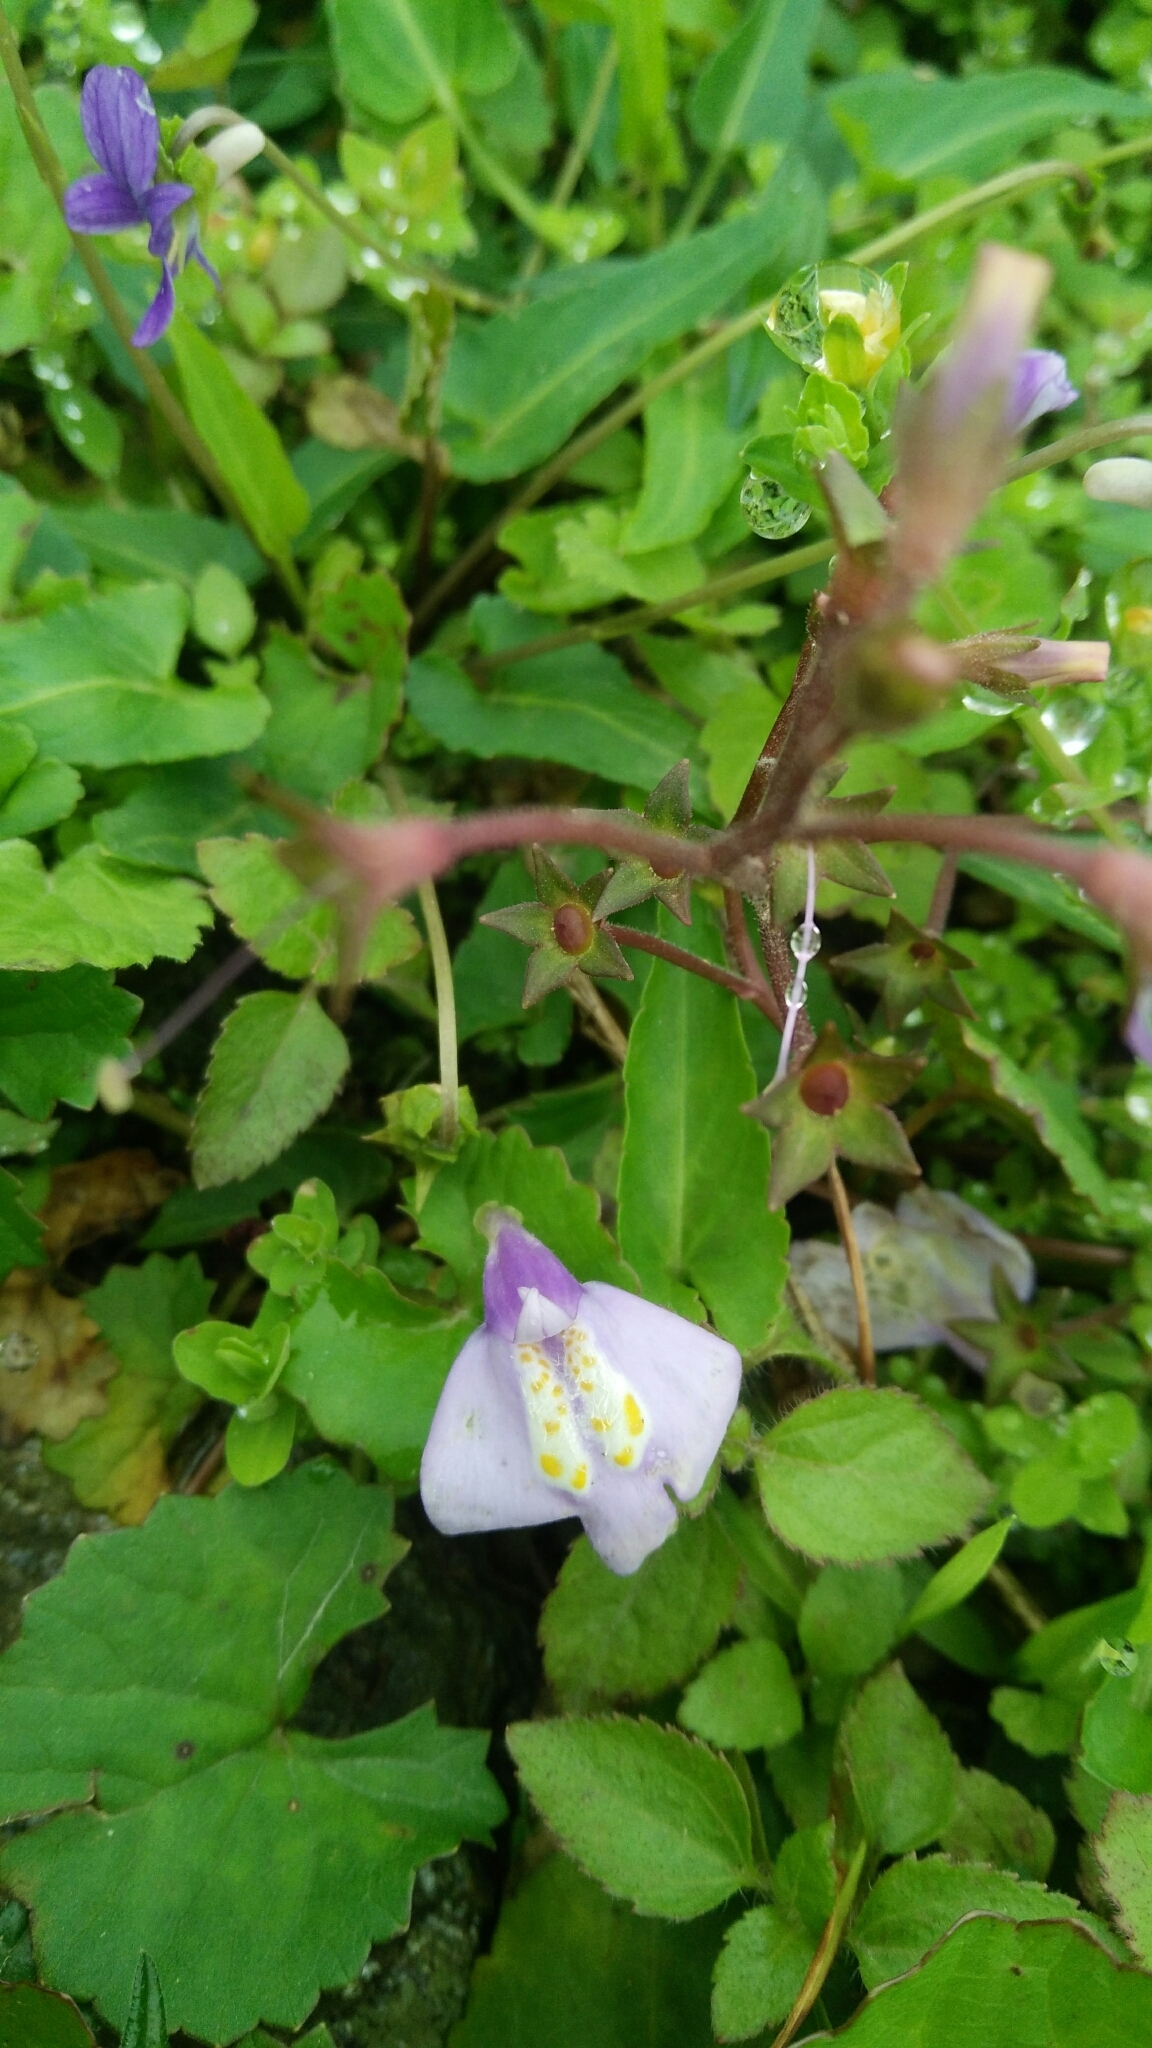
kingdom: Plantae
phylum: Tracheophyta
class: Magnoliopsida
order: Lamiales
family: Mazaceae
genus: Mazus
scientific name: Mazus fauriei
